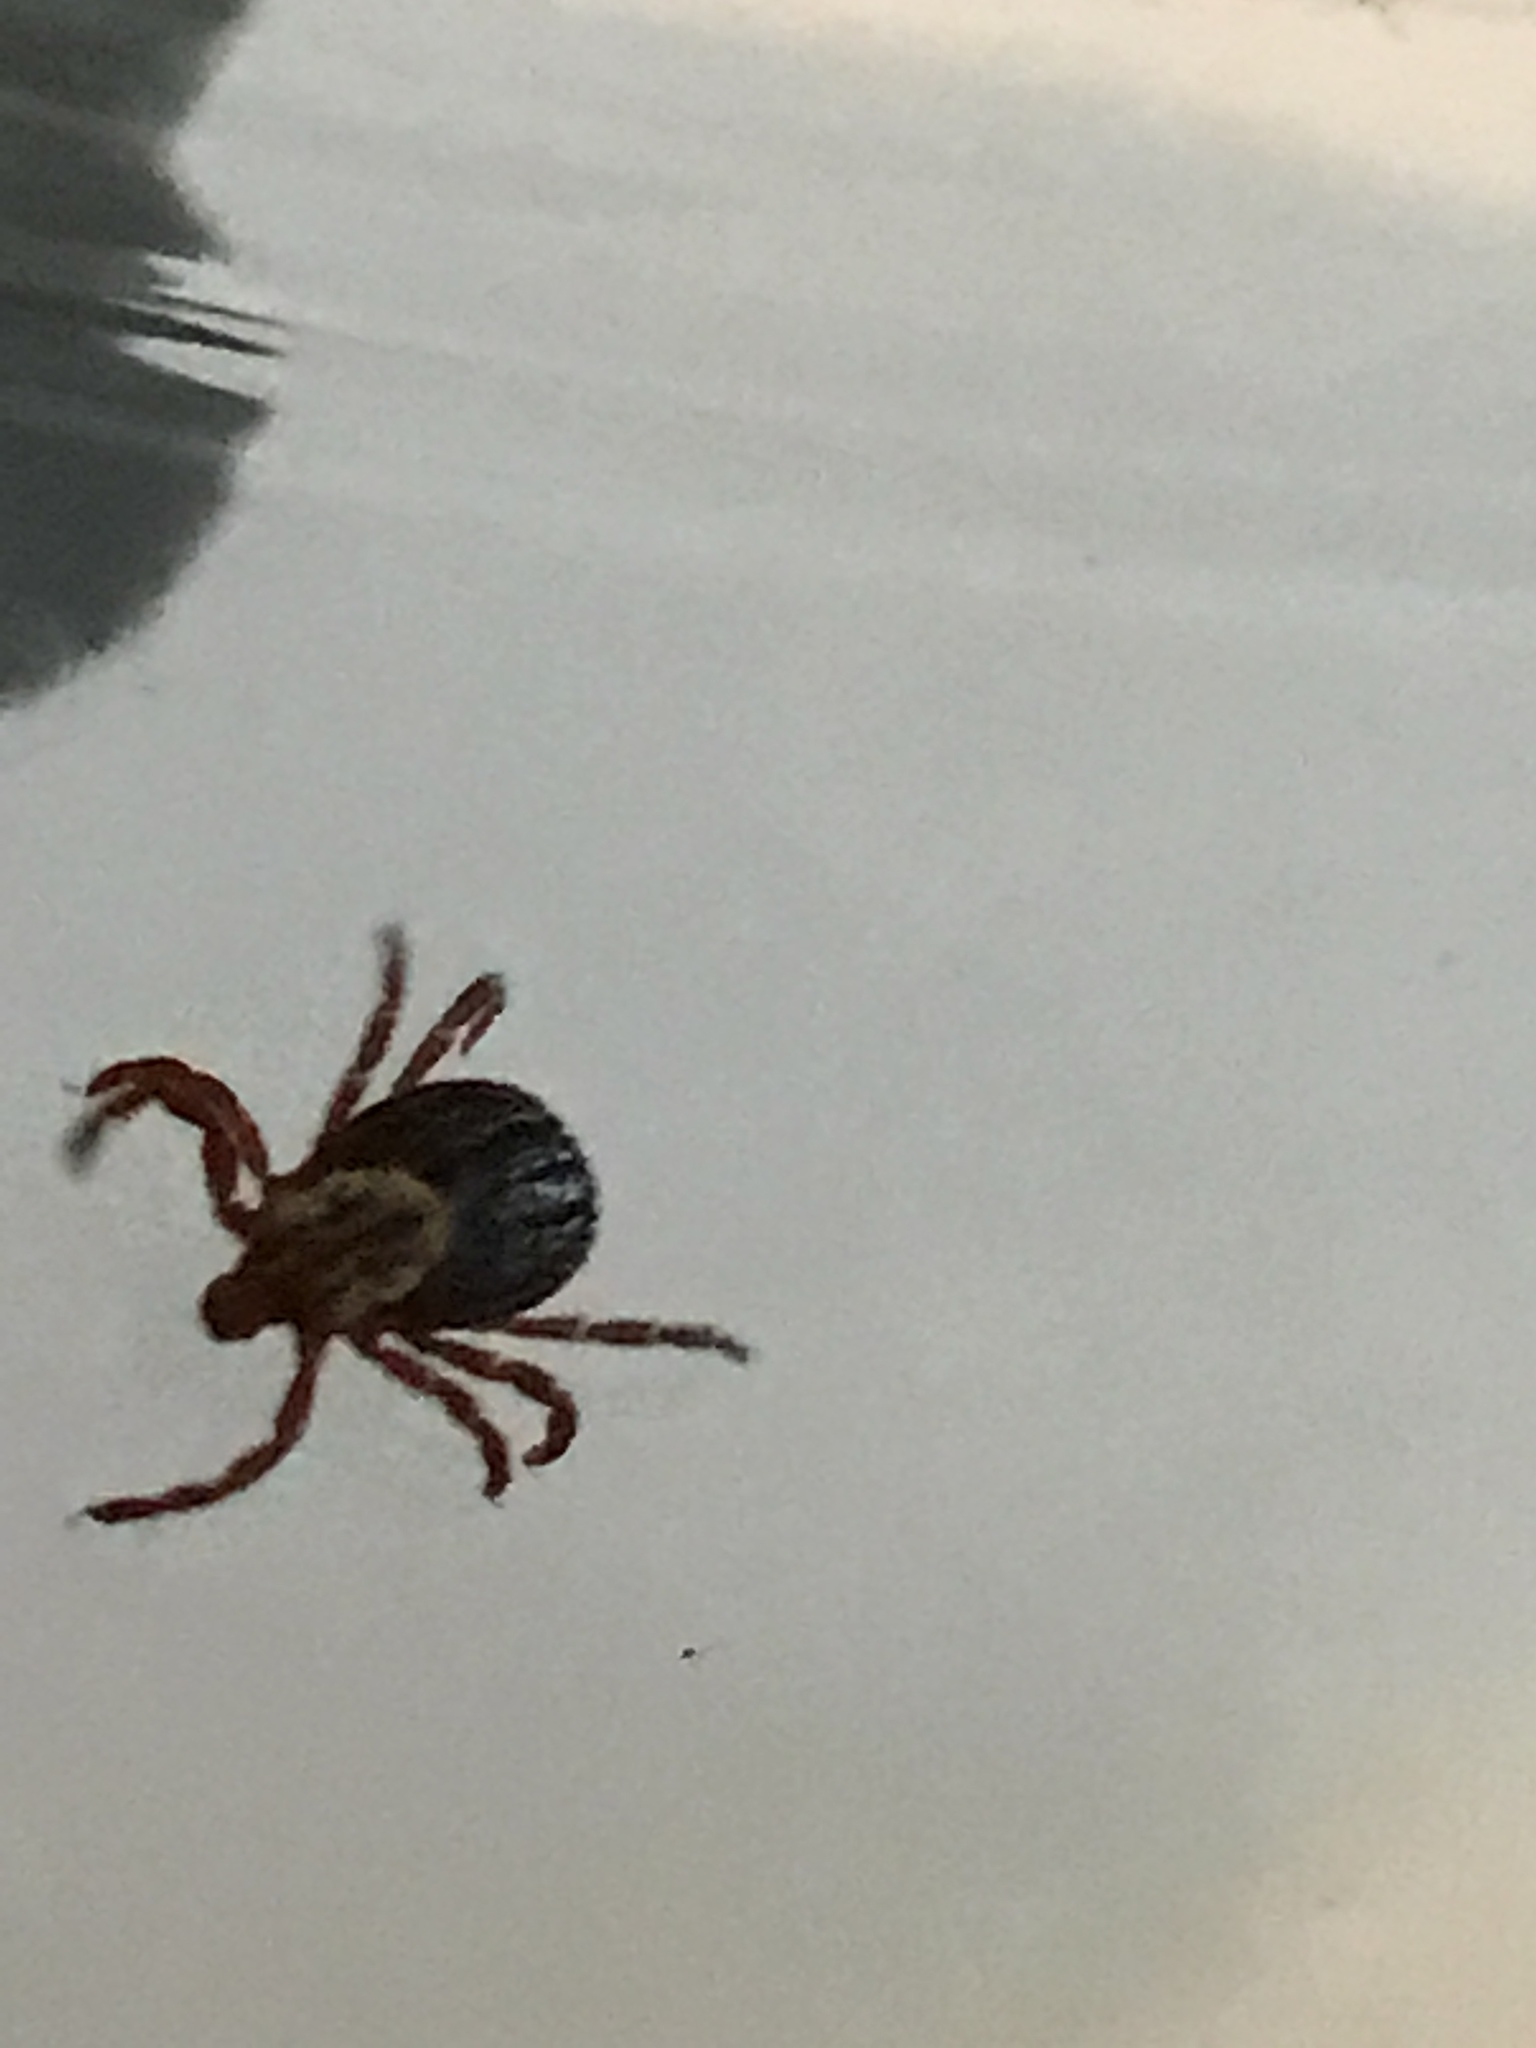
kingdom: Animalia
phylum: Arthropoda
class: Arachnida
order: Ixodida
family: Ixodidae
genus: Dermacentor
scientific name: Dermacentor variabilis
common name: American dog tick
